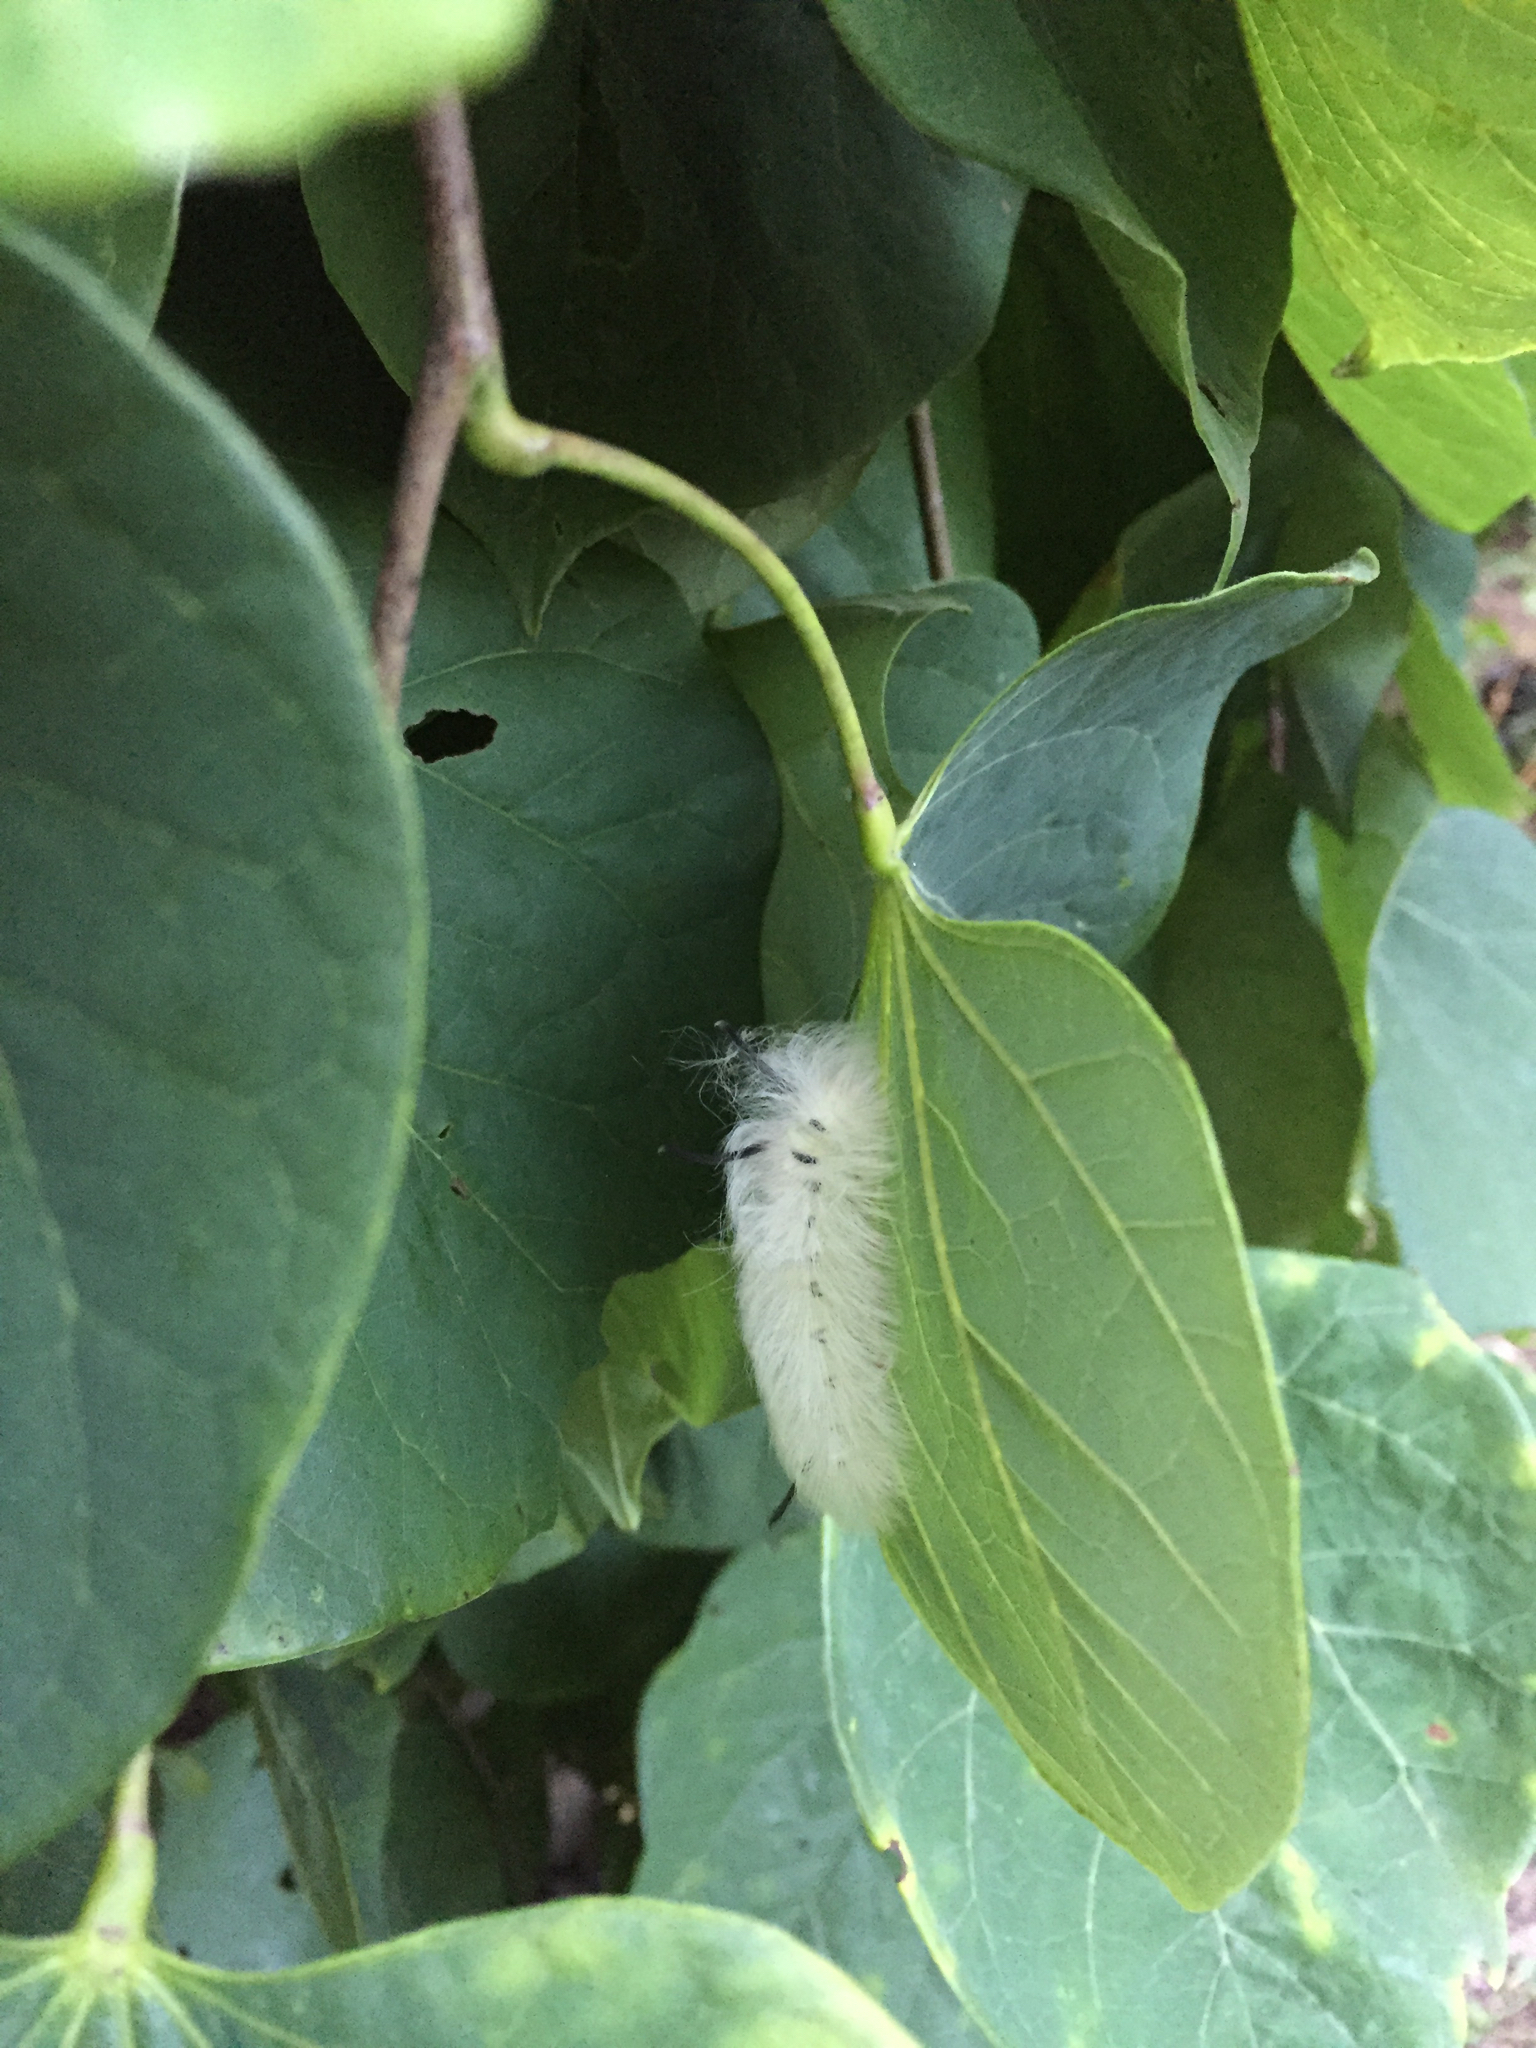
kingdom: Animalia
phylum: Arthropoda
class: Insecta
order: Lepidoptera
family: Apatelodidae
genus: Hygrochroa
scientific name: Hygrochroa Apatelodes torrefacta
